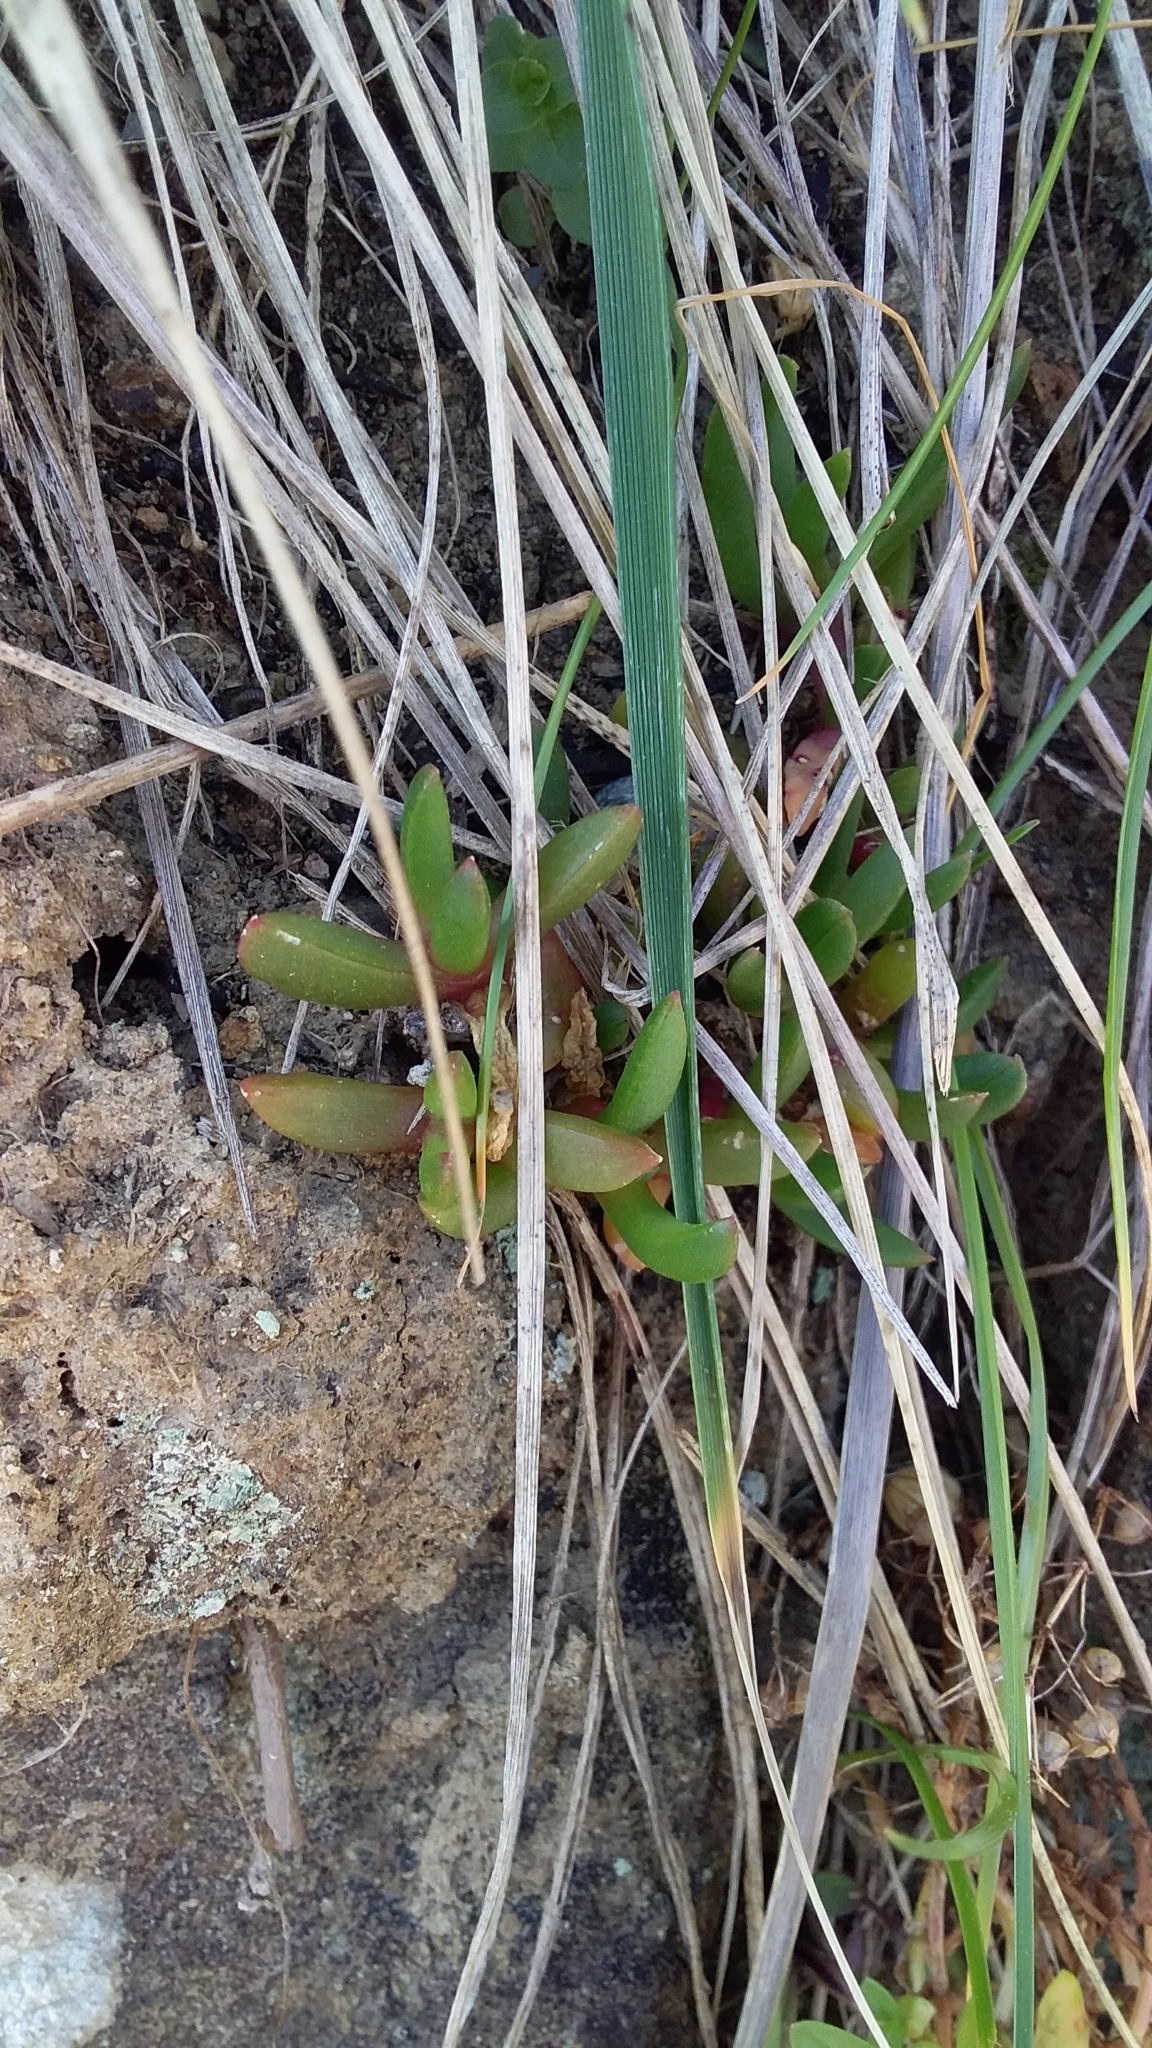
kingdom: Plantae
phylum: Tracheophyta
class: Magnoliopsida
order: Caryophyllales
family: Aizoaceae
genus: Disphyma
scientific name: Disphyma australe
